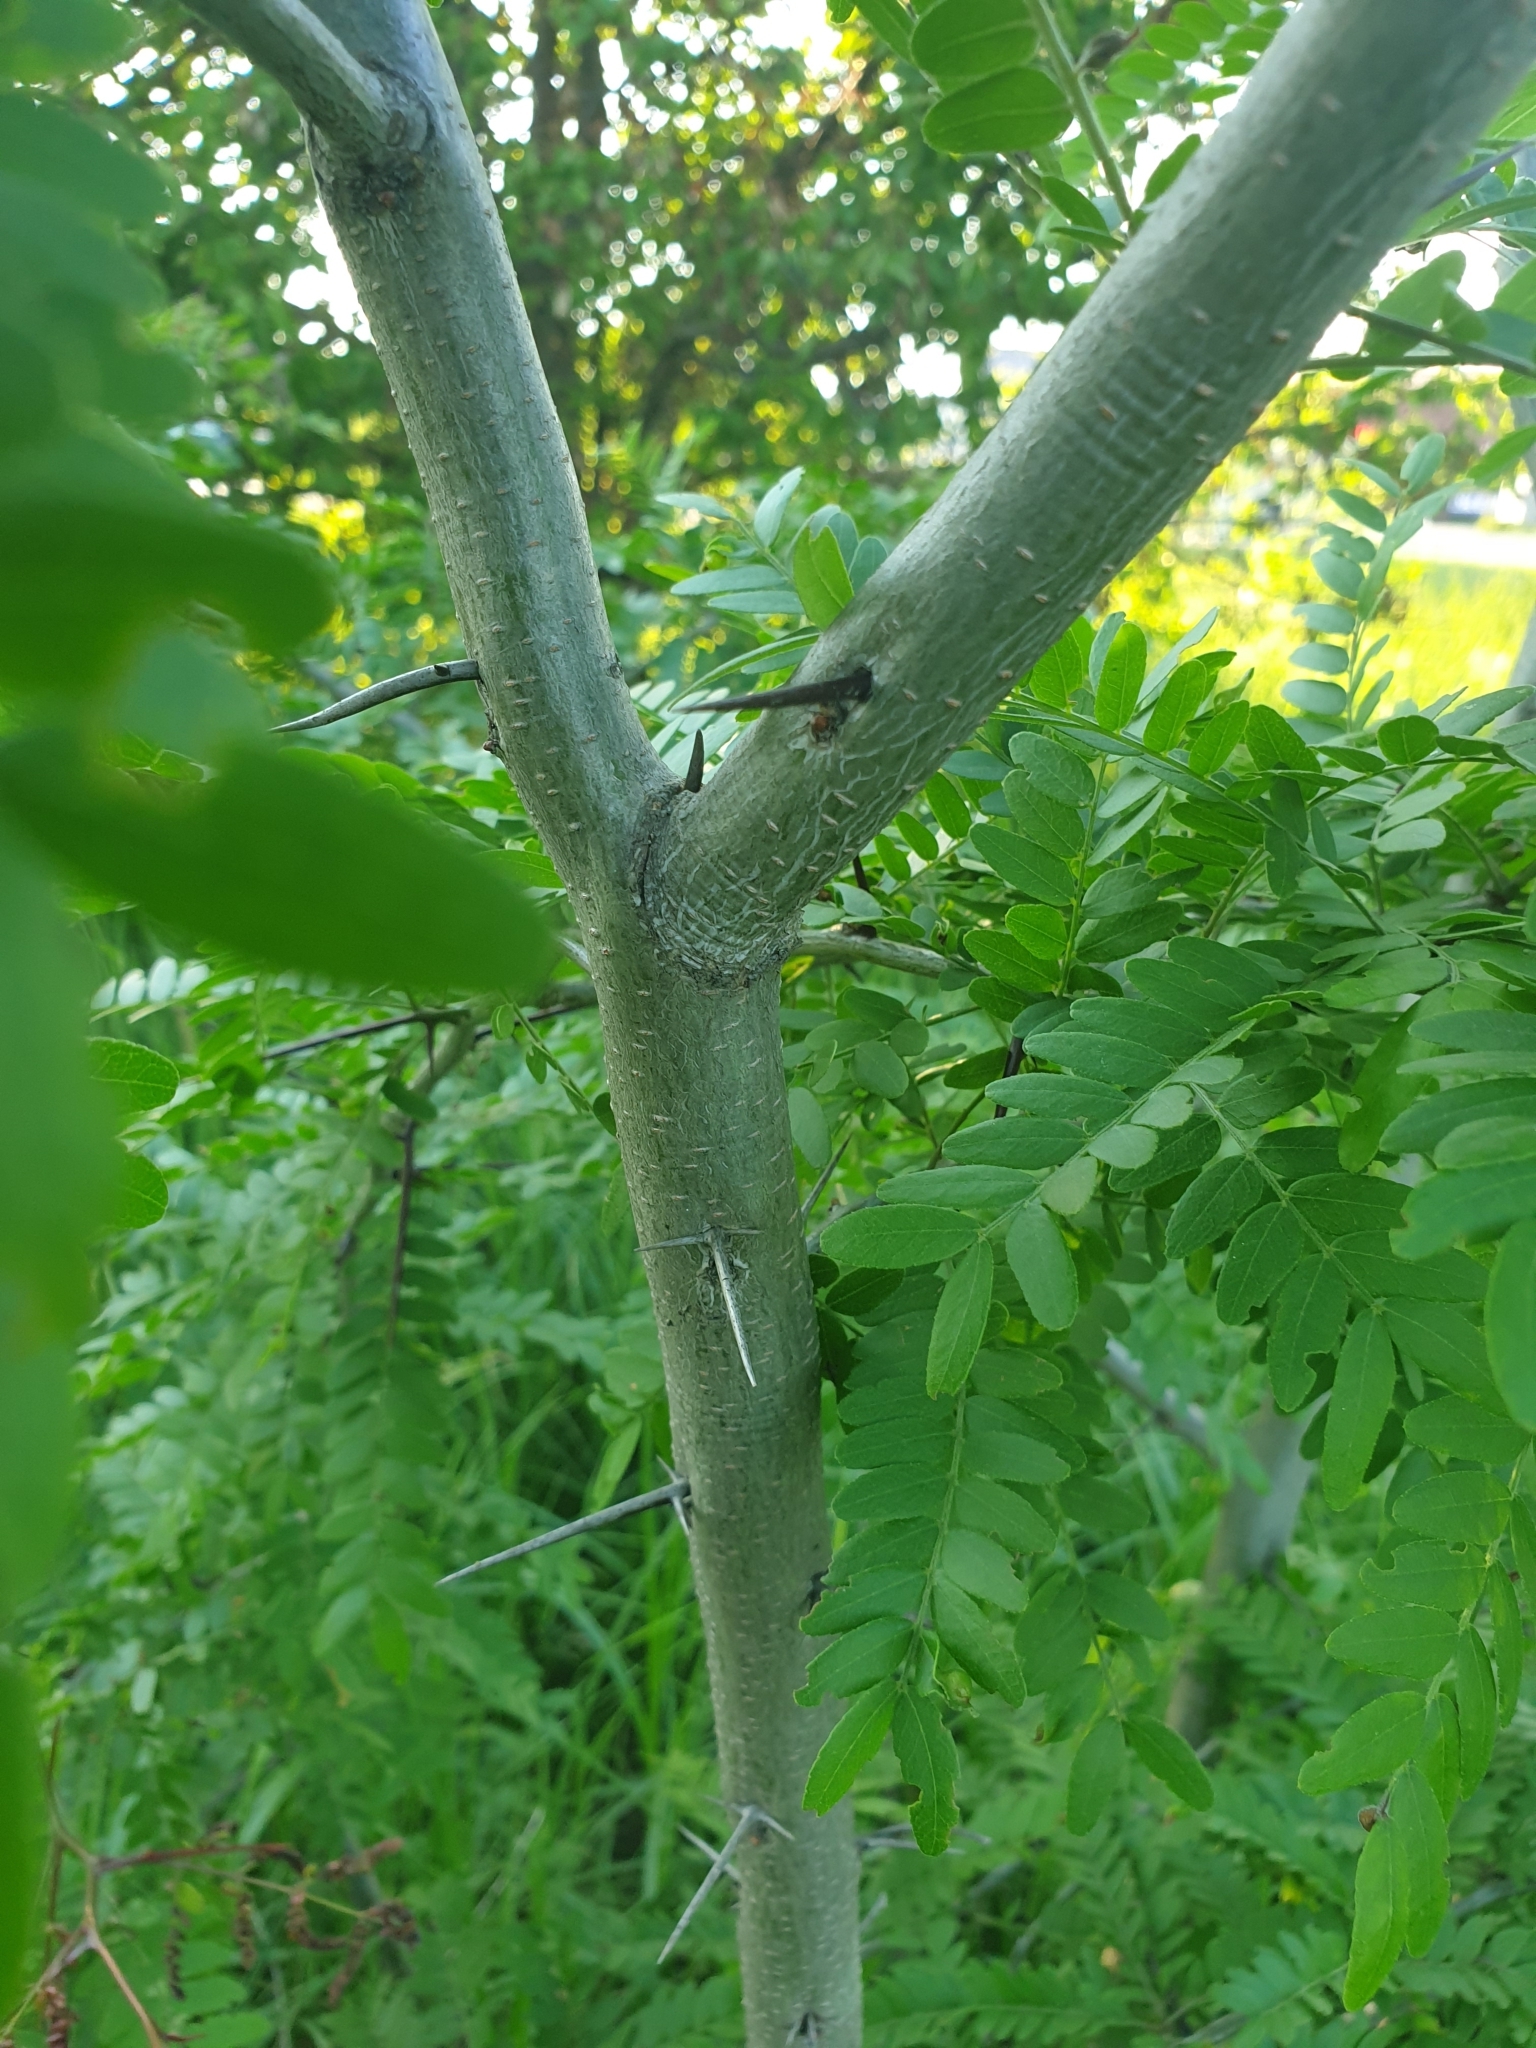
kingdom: Plantae
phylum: Tracheophyta
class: Magnoliopsida
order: Fabales
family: Fabaceae
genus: Amorpha
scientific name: Amorpha fruticosa
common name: False indigo
